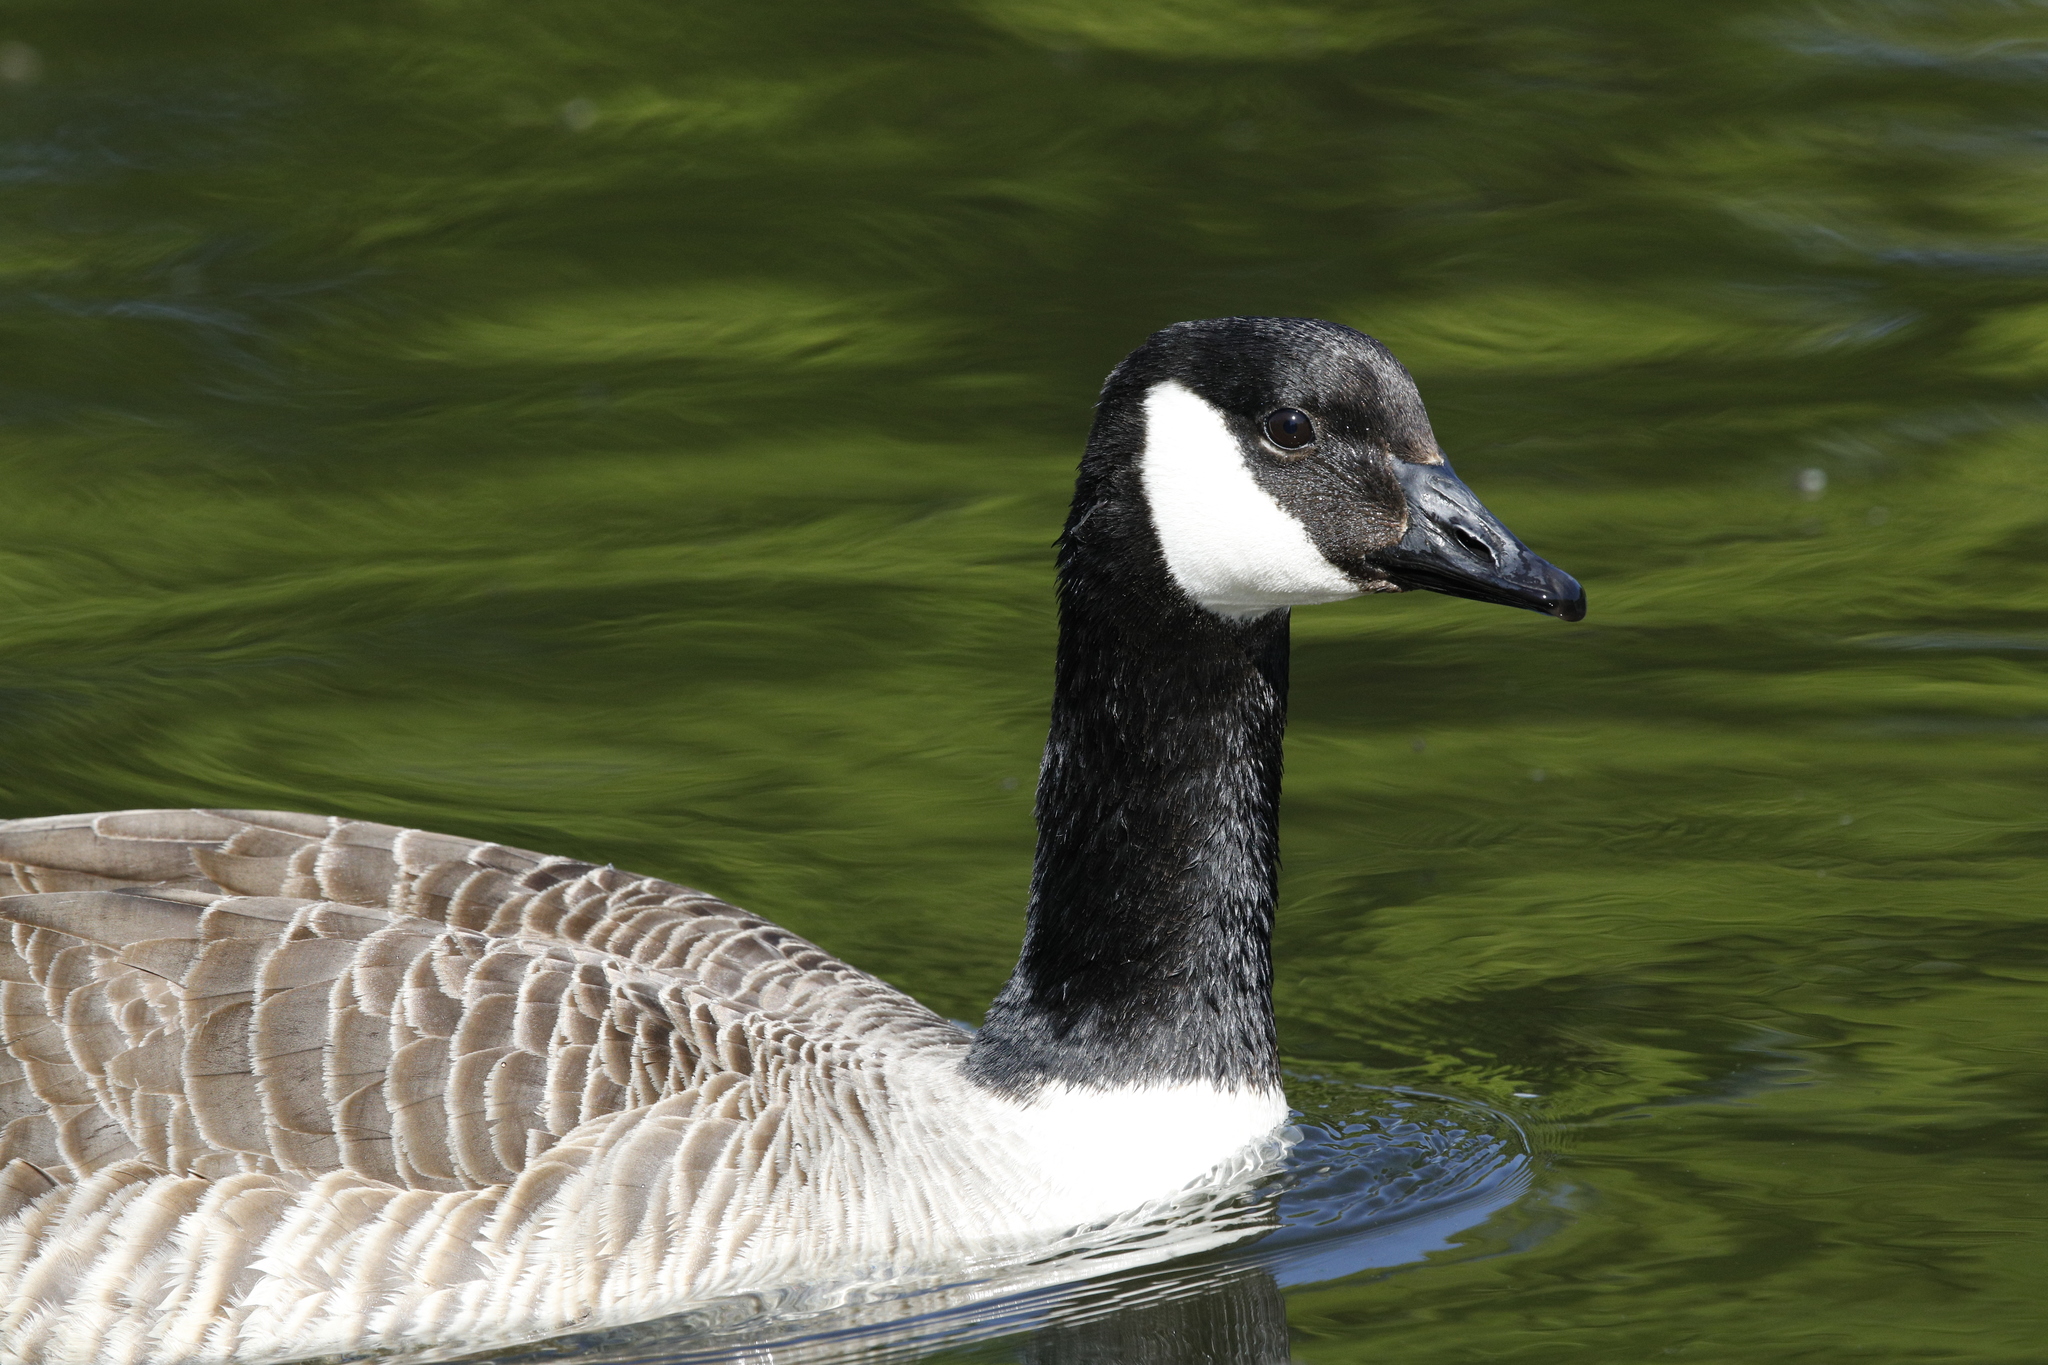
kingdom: Animalia
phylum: Chordata
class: Aves
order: Anseriformes
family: Anatidae
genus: Branta
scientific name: Branta canadensis
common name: Canada goose
